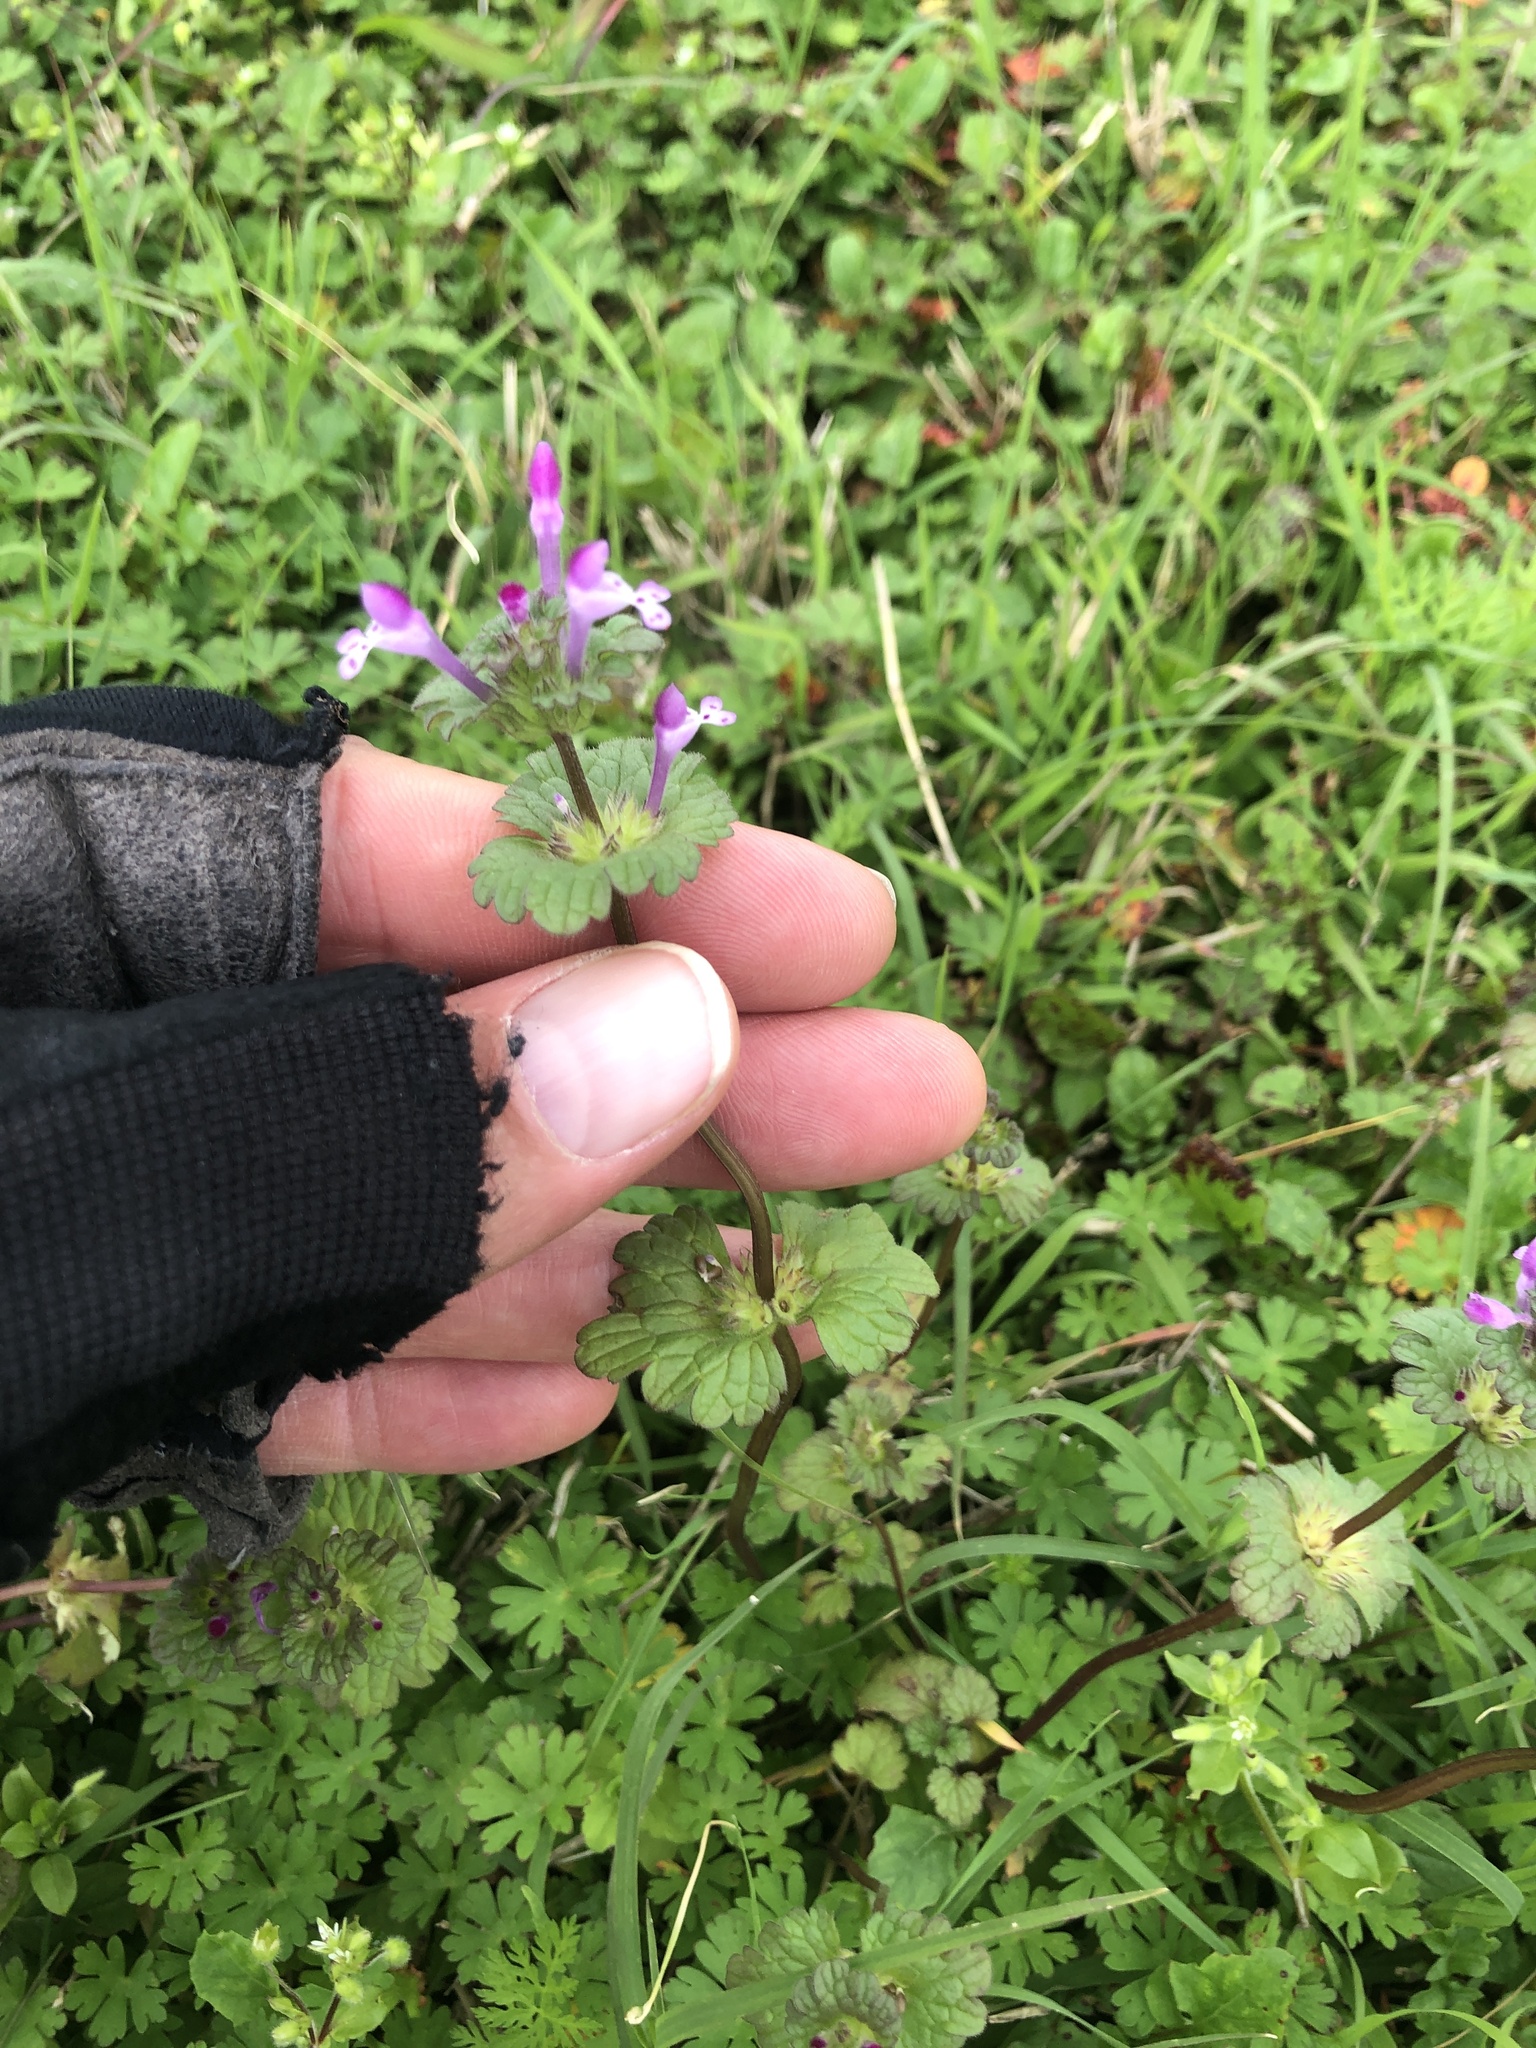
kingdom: Plantae
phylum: Tracheophyta
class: Magnoliopsida
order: Lamiales
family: Lamiaceae
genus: Lamium
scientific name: Lamium amplexicaule
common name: Henbit dead-nettle
